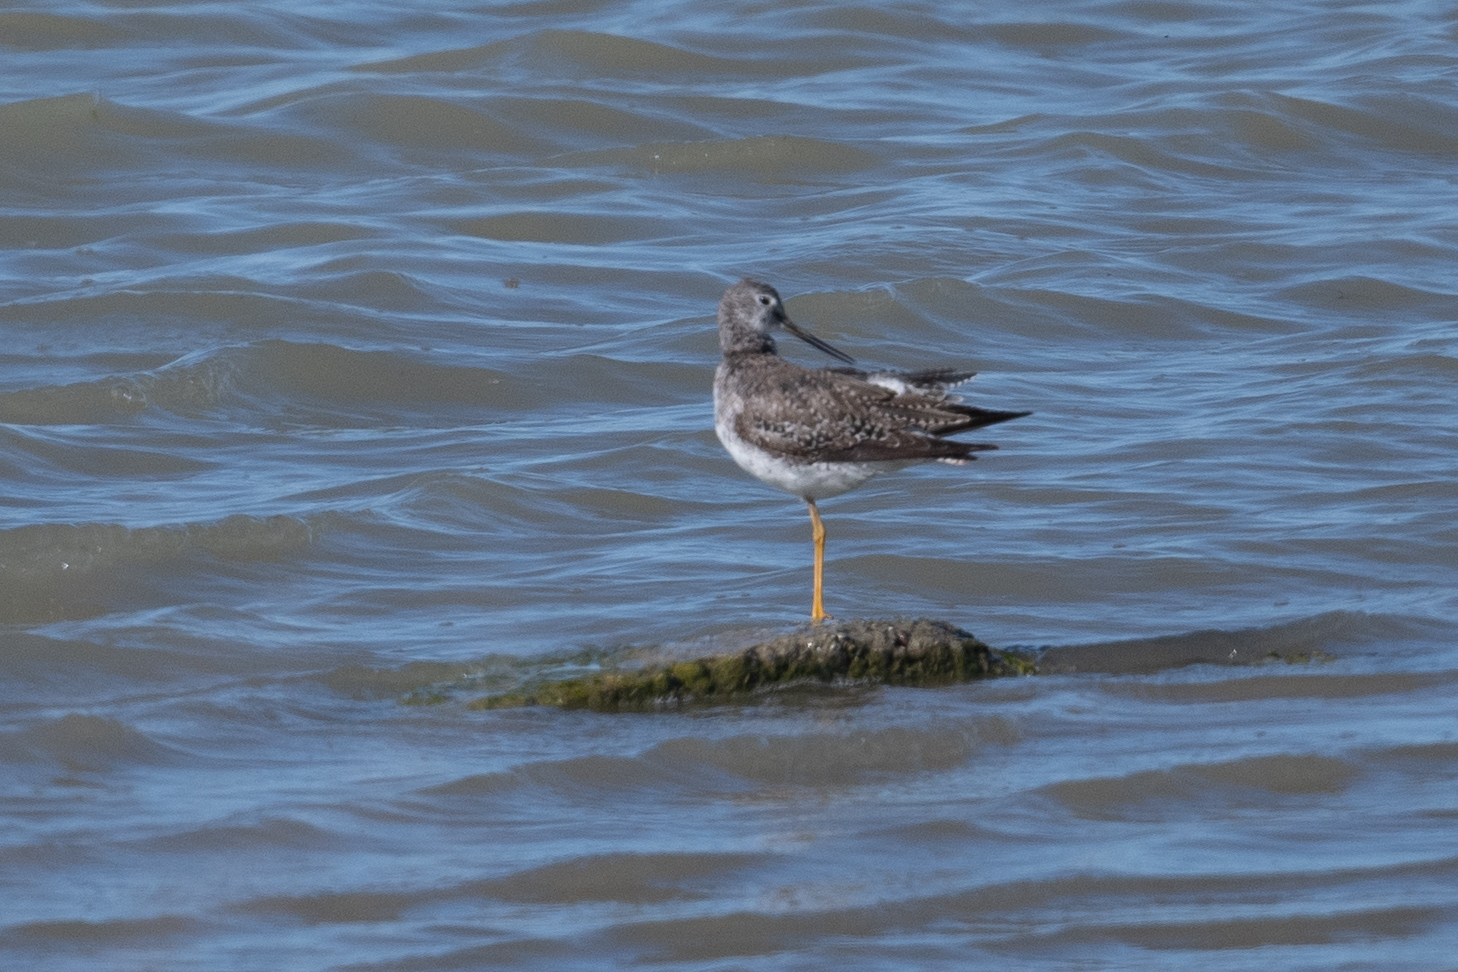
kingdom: Animalia
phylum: Chordata
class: Aves
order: Charadriiformes
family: Scolopacidae
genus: Tringa
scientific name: Tringa melanoleuca
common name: Greater yellowlegs
